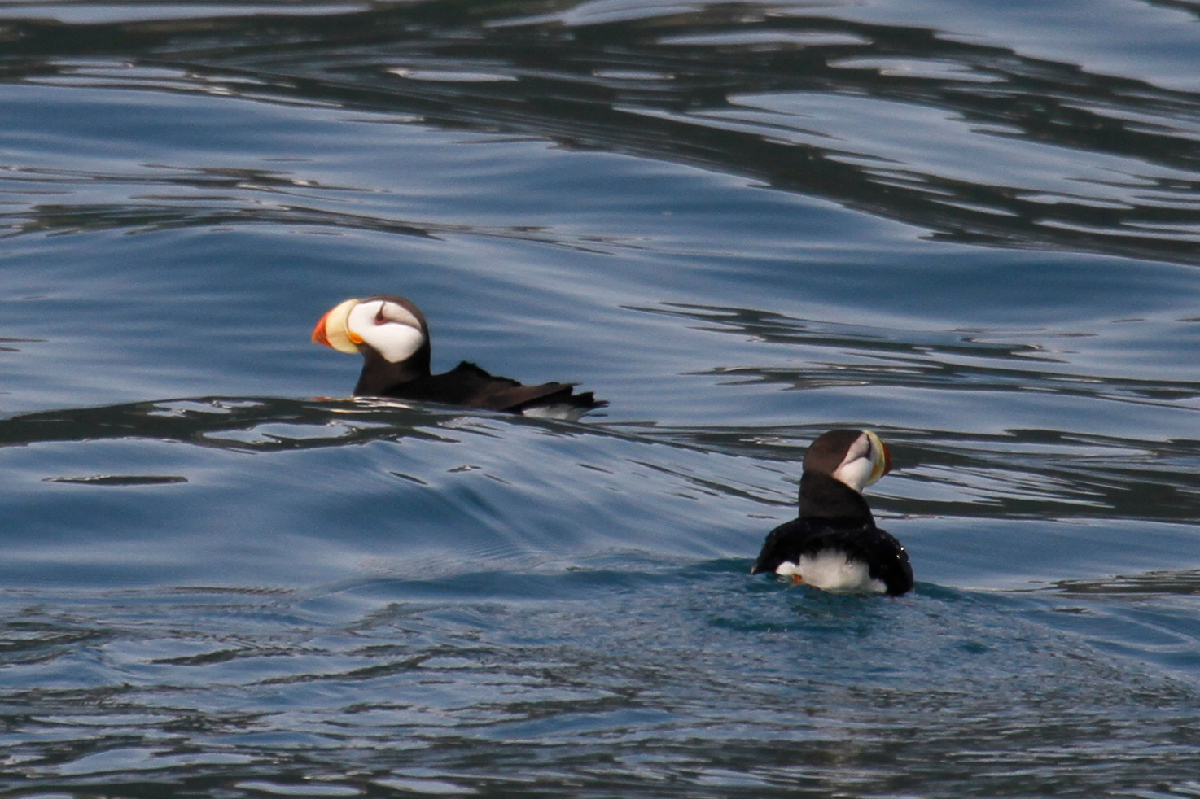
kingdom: Animalia
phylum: Chordata
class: Aves
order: Charadriiformes
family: Alcidae
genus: Fratercula
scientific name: Fratercula corniculata
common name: Horned puffin
